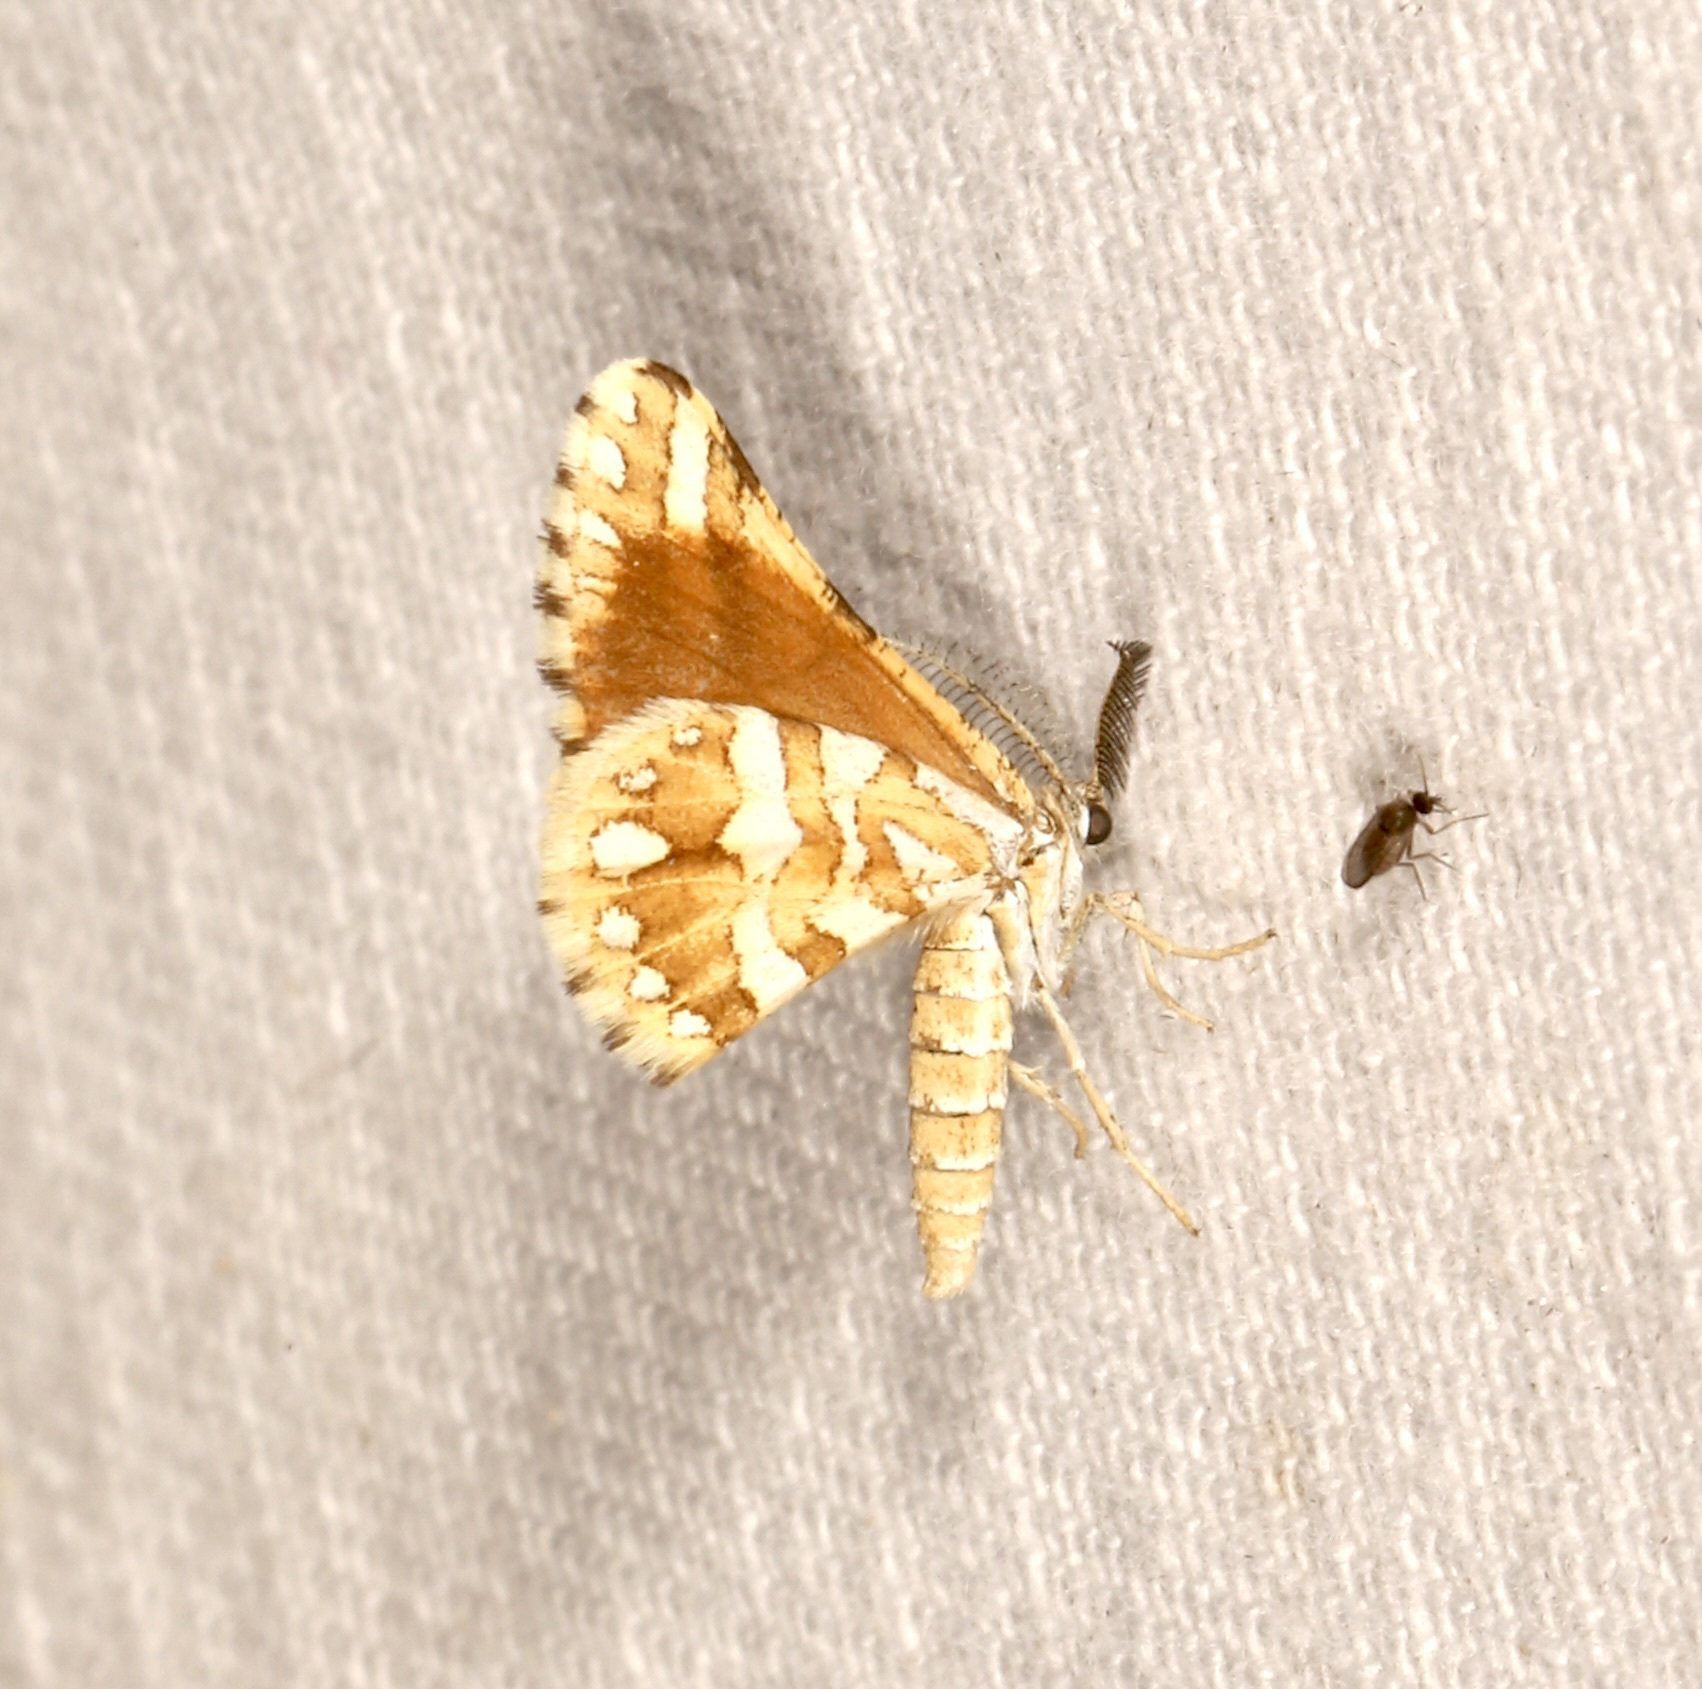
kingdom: Animalia
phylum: Arthropoda
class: Insecta
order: Lepidoptera
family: Geometridae
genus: Narraga
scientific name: Narraga fimetaria
